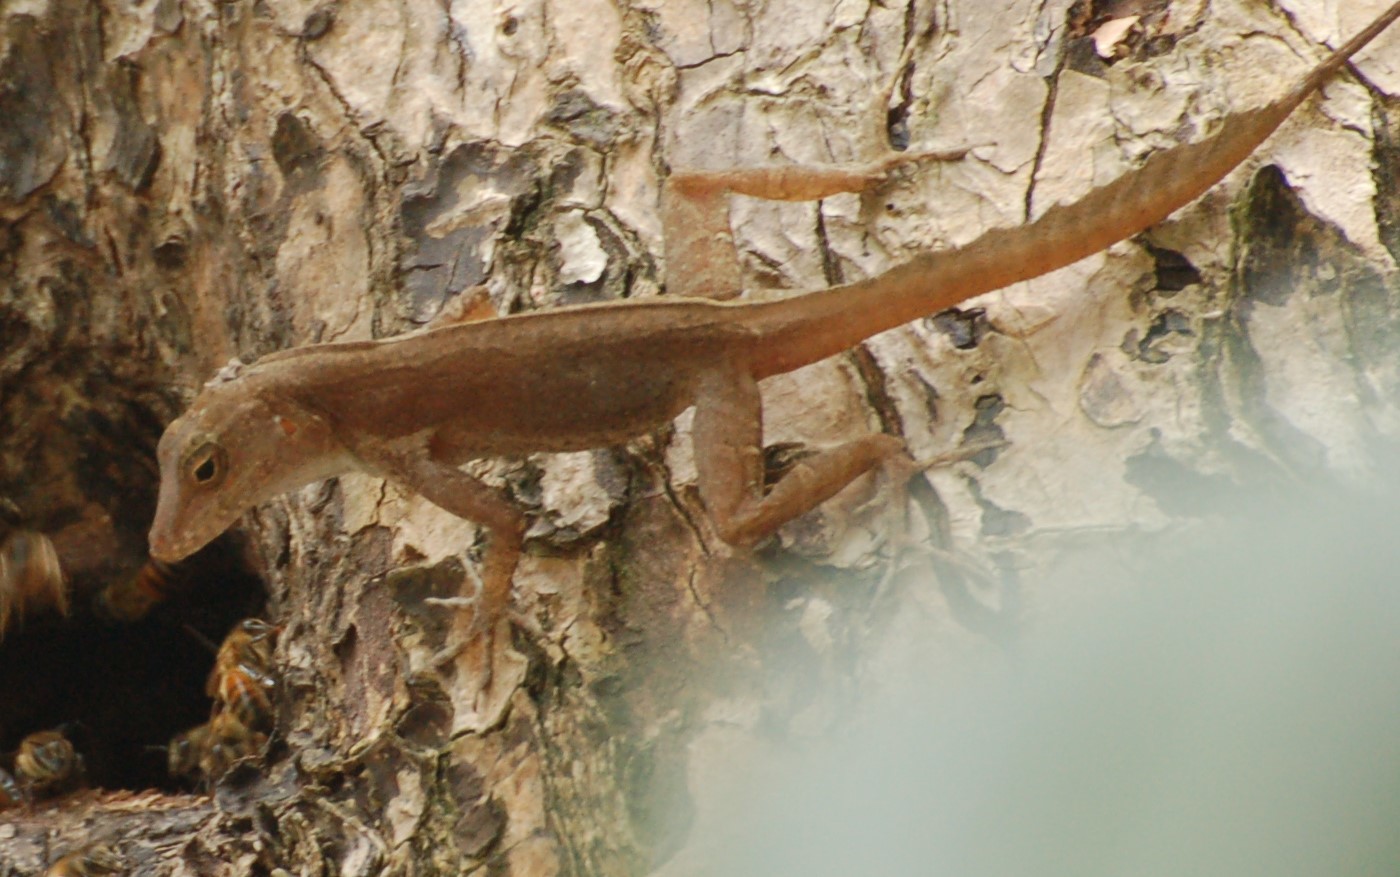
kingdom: Animalia
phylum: Chordata
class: Squamata
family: Dactyloidae
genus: Anolis
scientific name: Anolis cristatellus
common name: Crested anole
